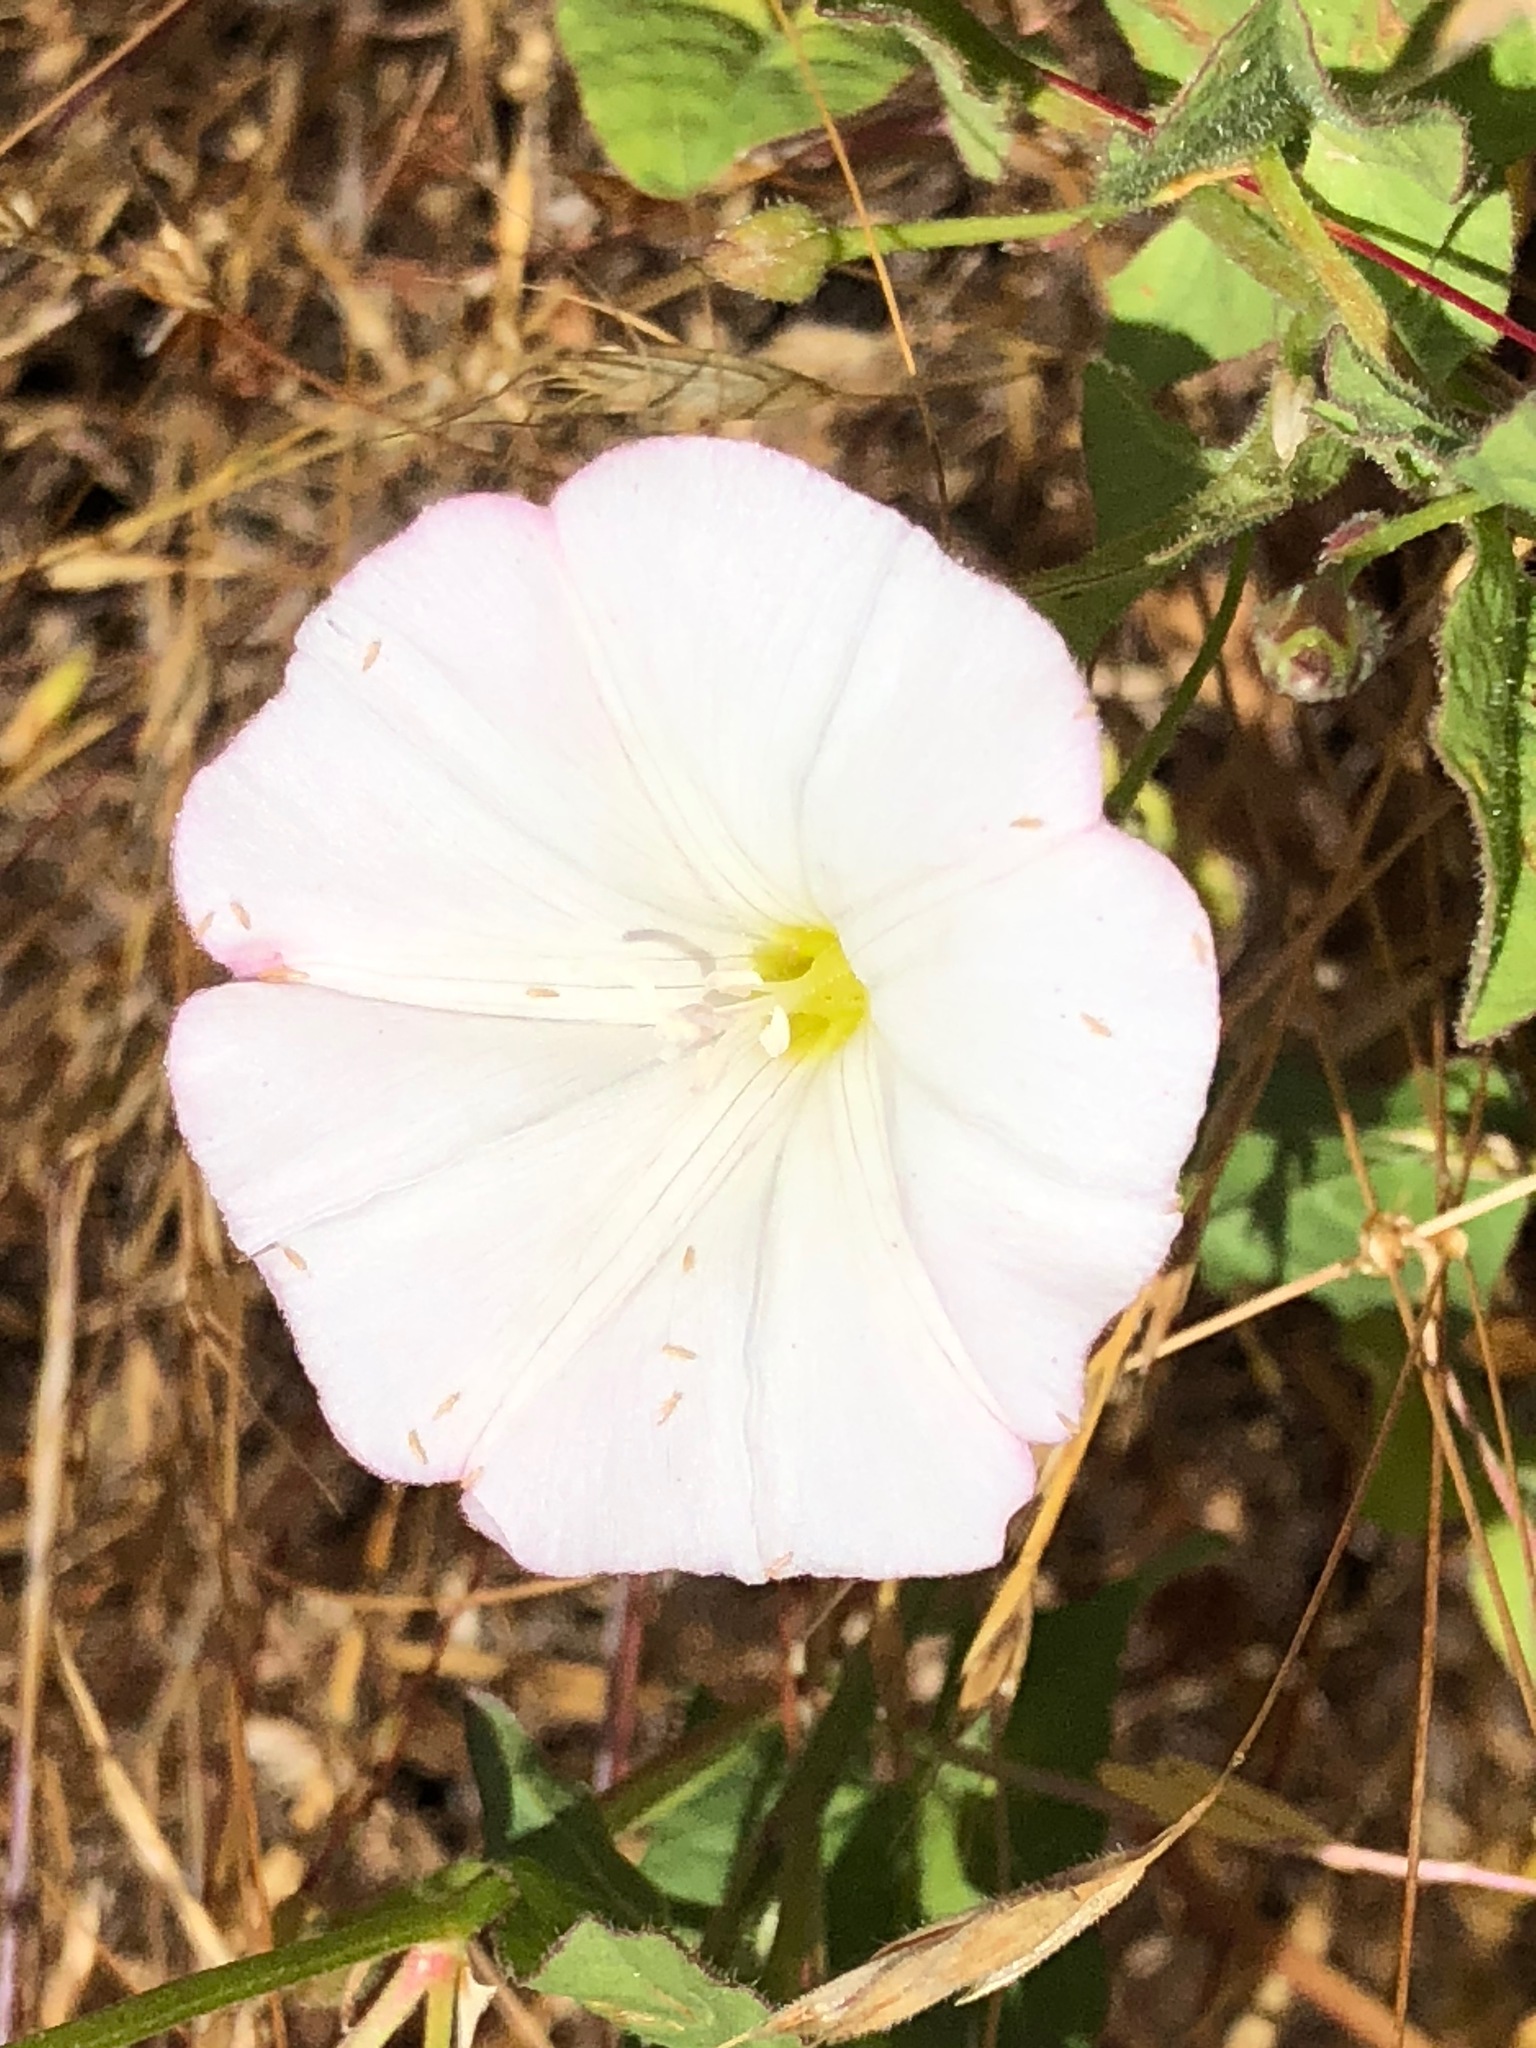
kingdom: Plantae
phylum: Tracheophyta
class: Magnoliopsida
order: Solanales
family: Convolvulaceae
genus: Convolvulus
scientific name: Convolvulus arvensis
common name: Field bindweed
